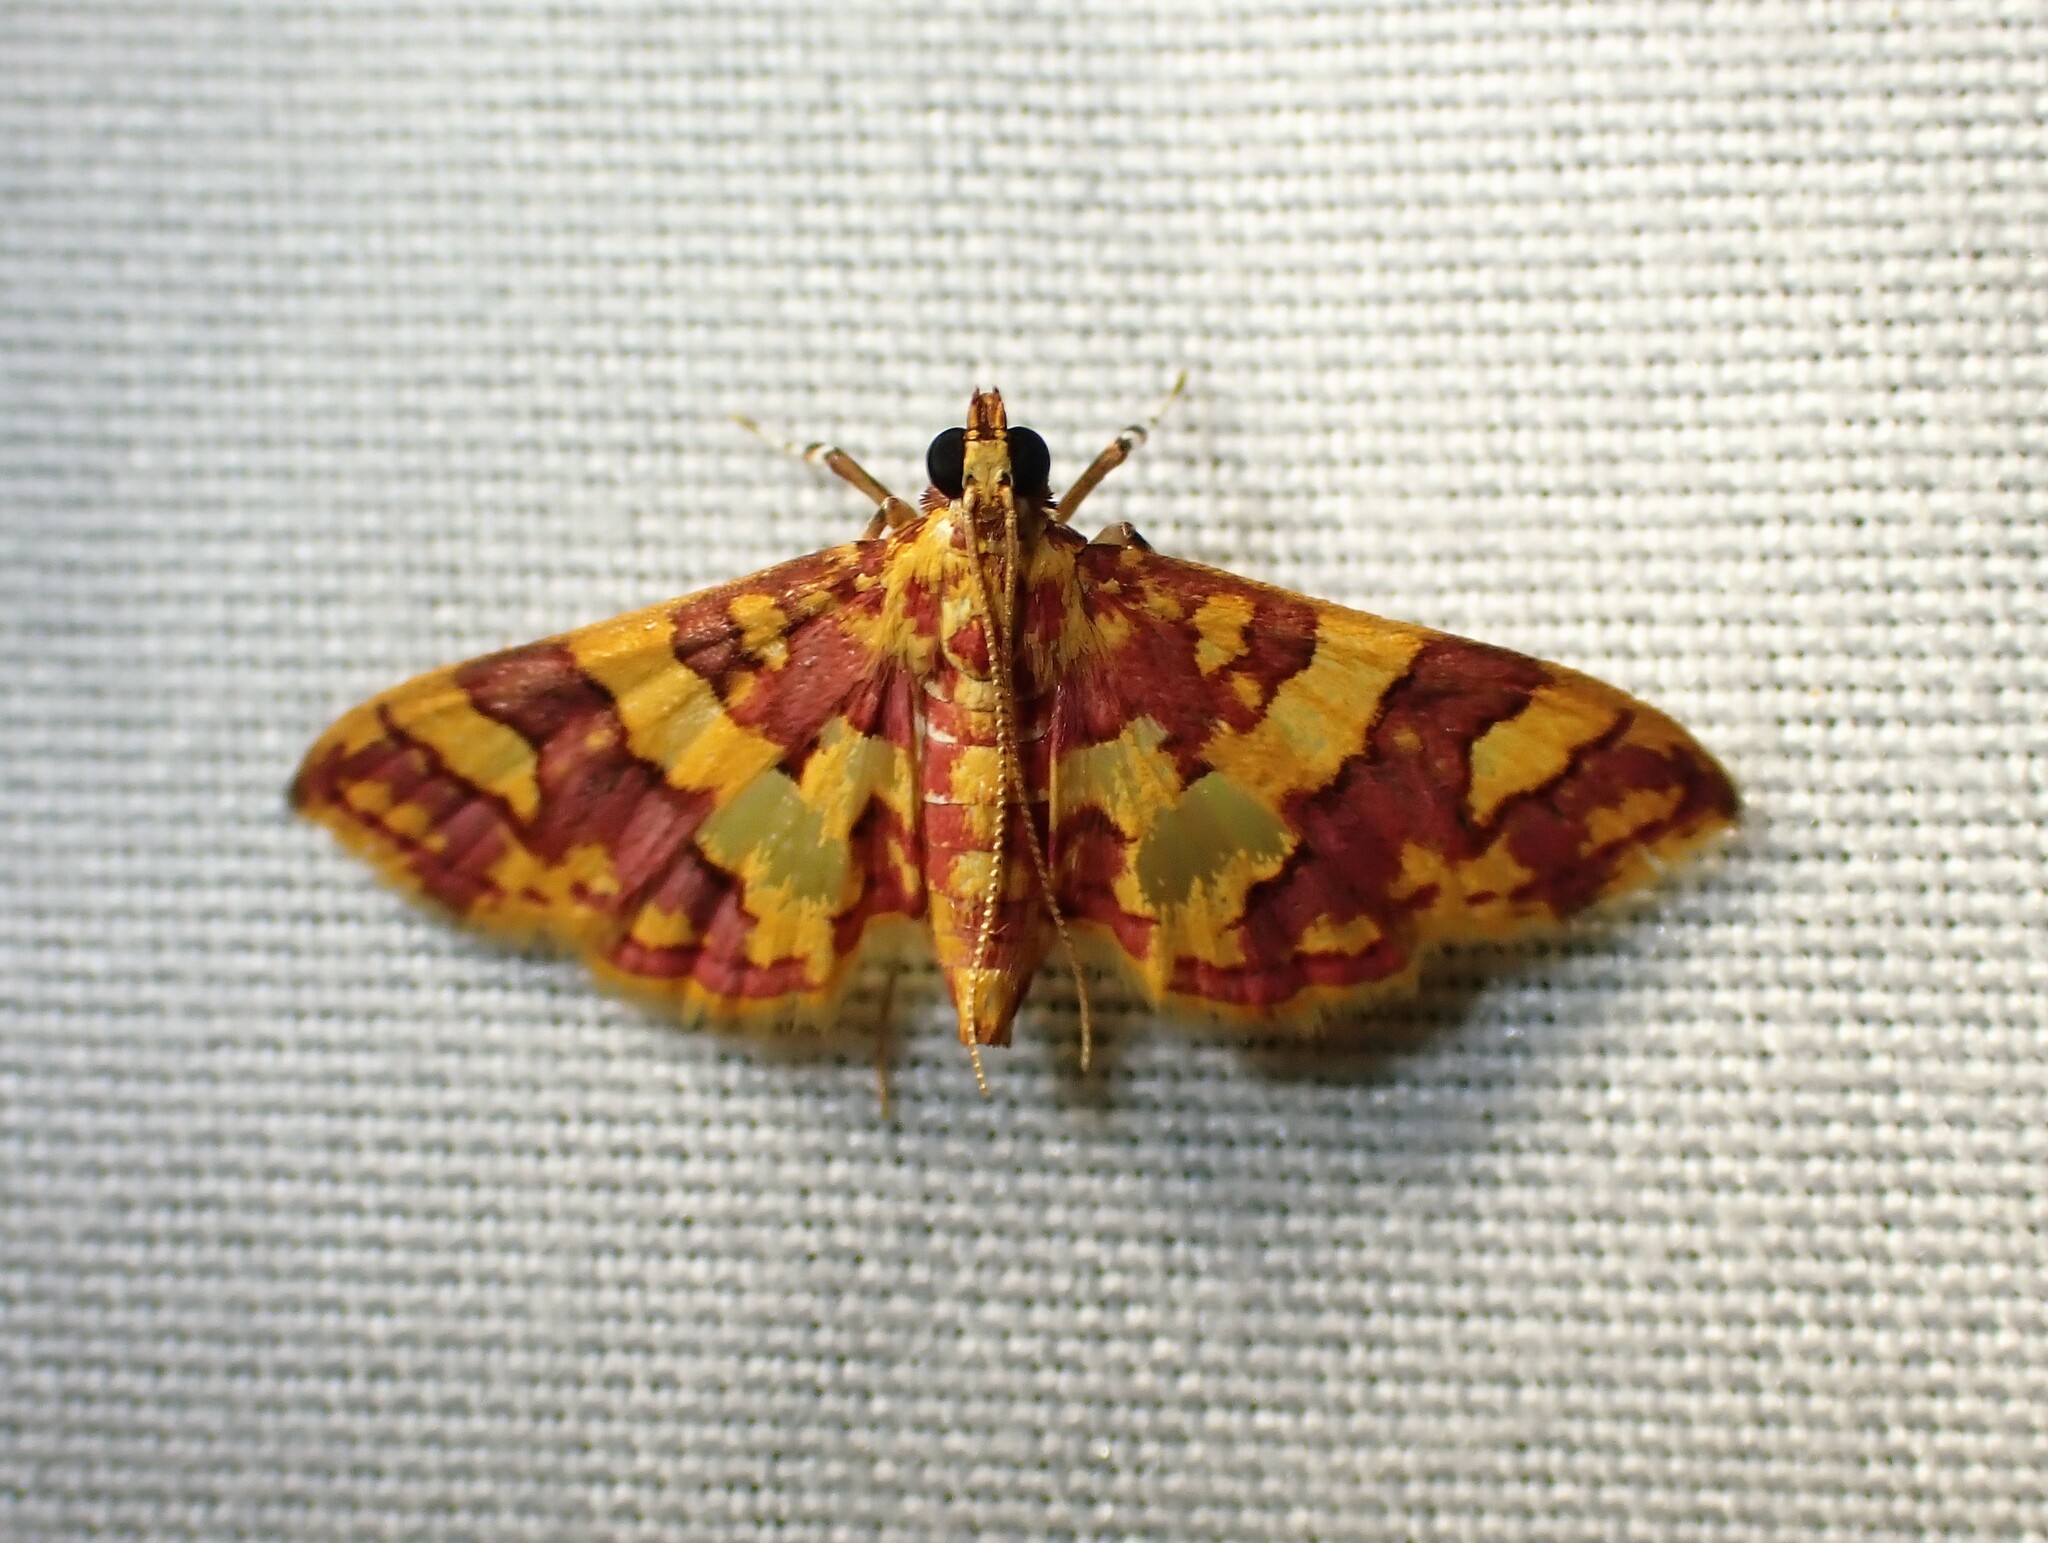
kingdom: Animalia
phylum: Arthropoda
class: Insecta
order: Lepidoptera
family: Crambidae
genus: Trithyris
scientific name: Trithyris Prenesta rubrocinctalis
